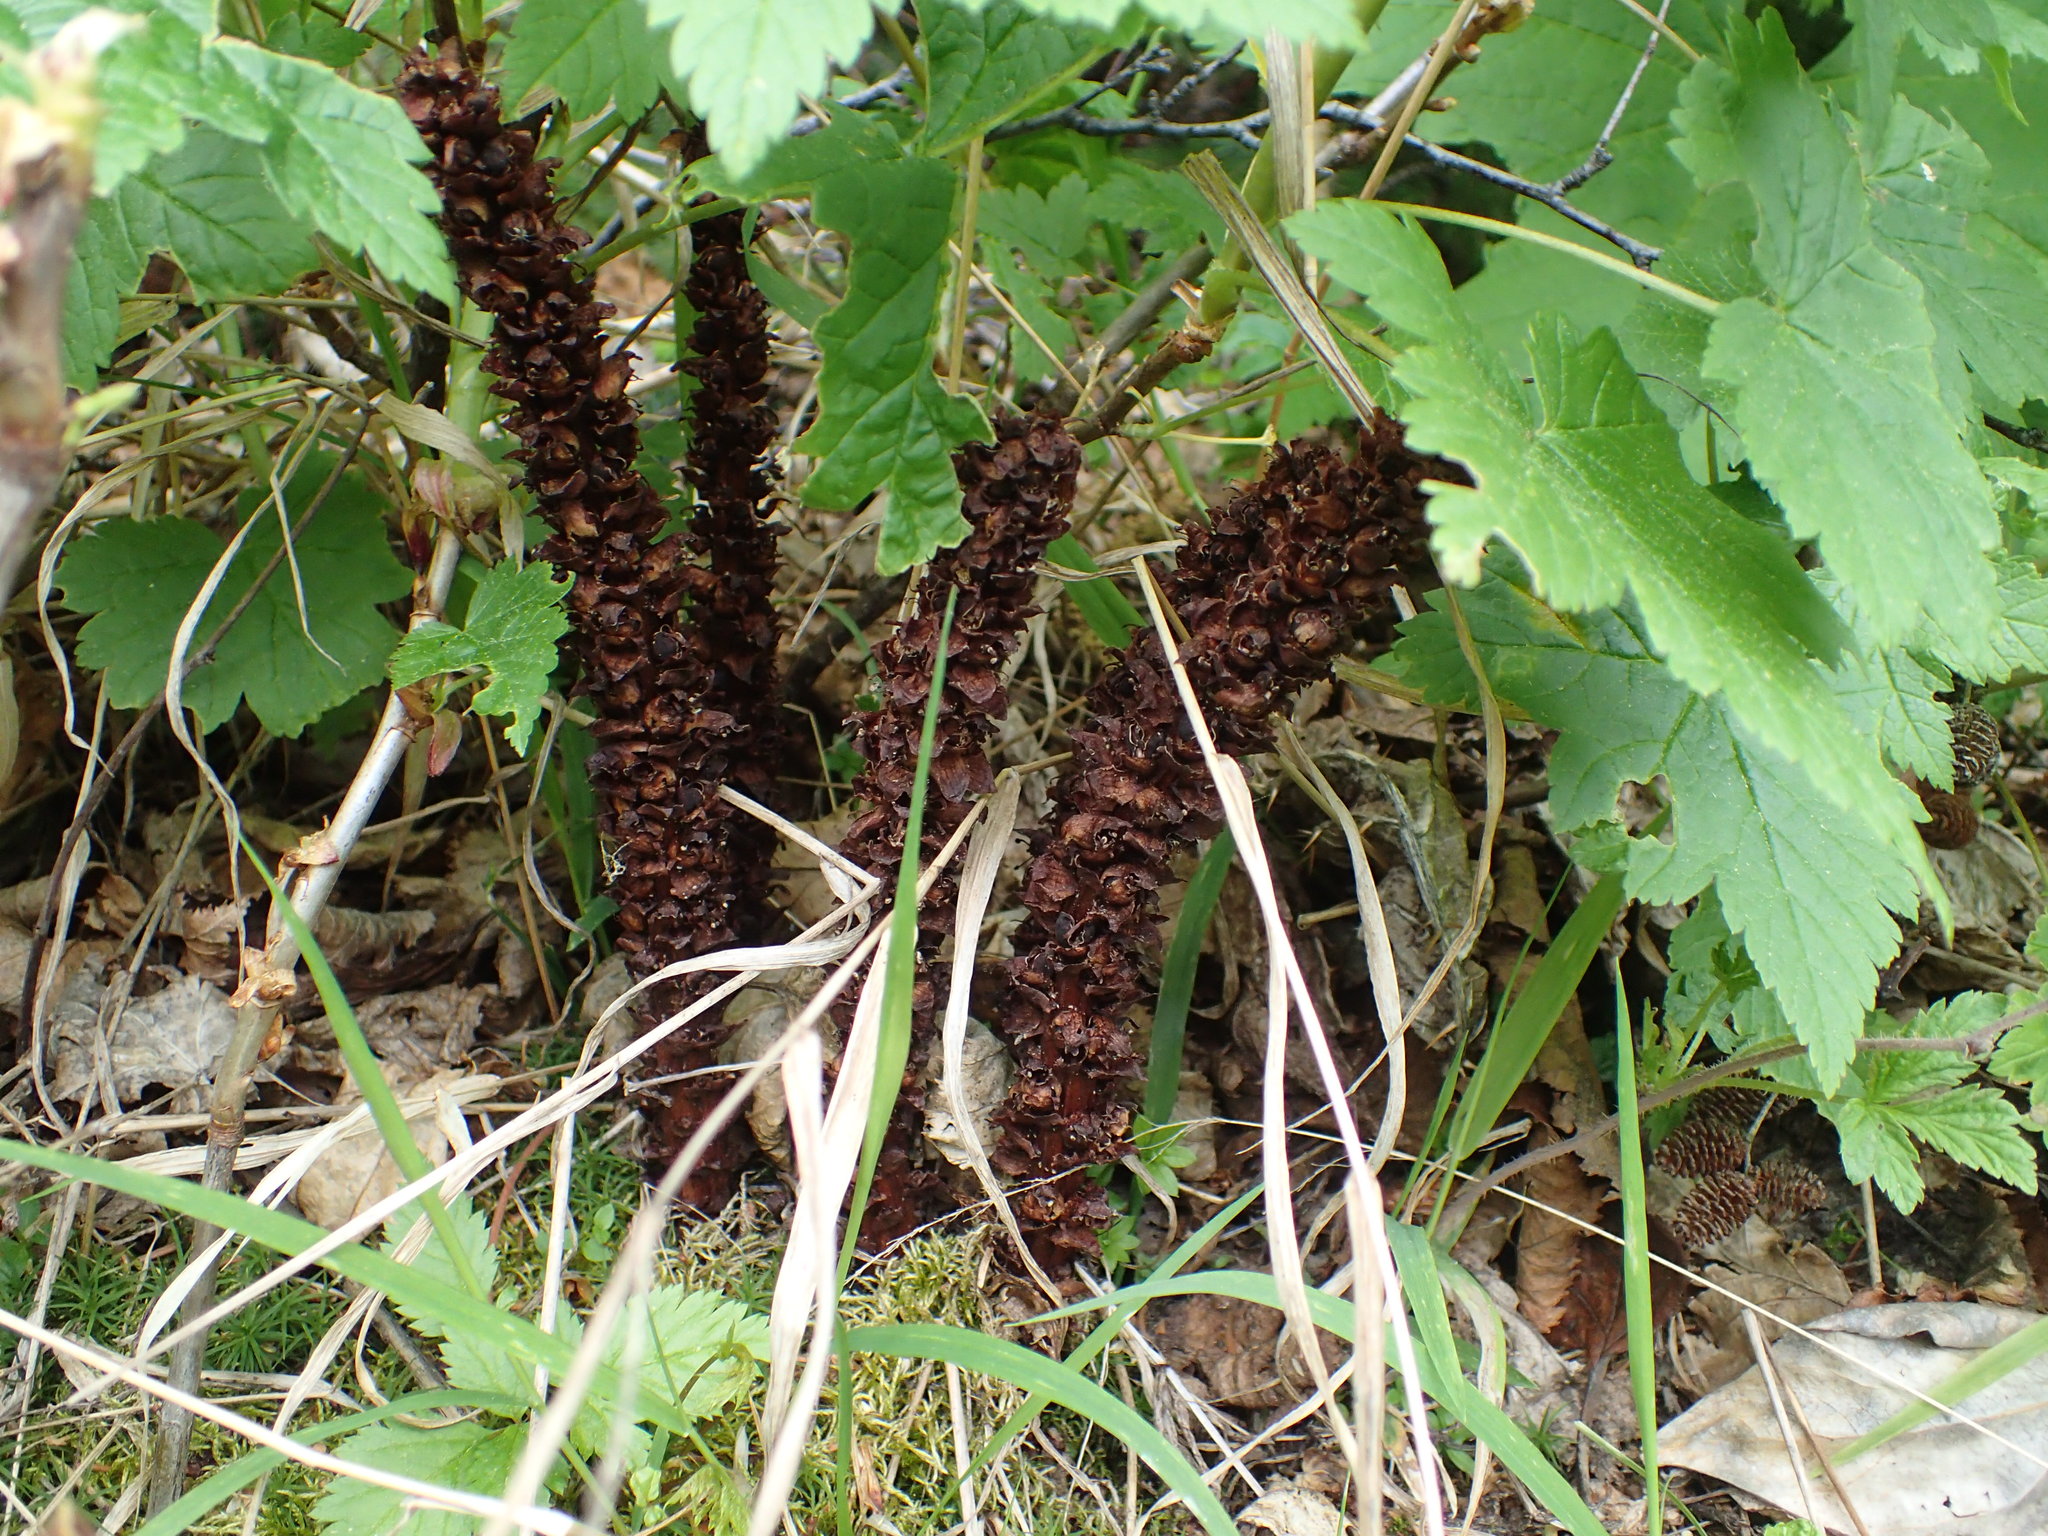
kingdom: Plantae
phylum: Tracheophyta
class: Magnoliopsida
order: Lamiales
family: Orobanchaceae
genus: Boschniakia
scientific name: Boschniakia rossica
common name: Poque
